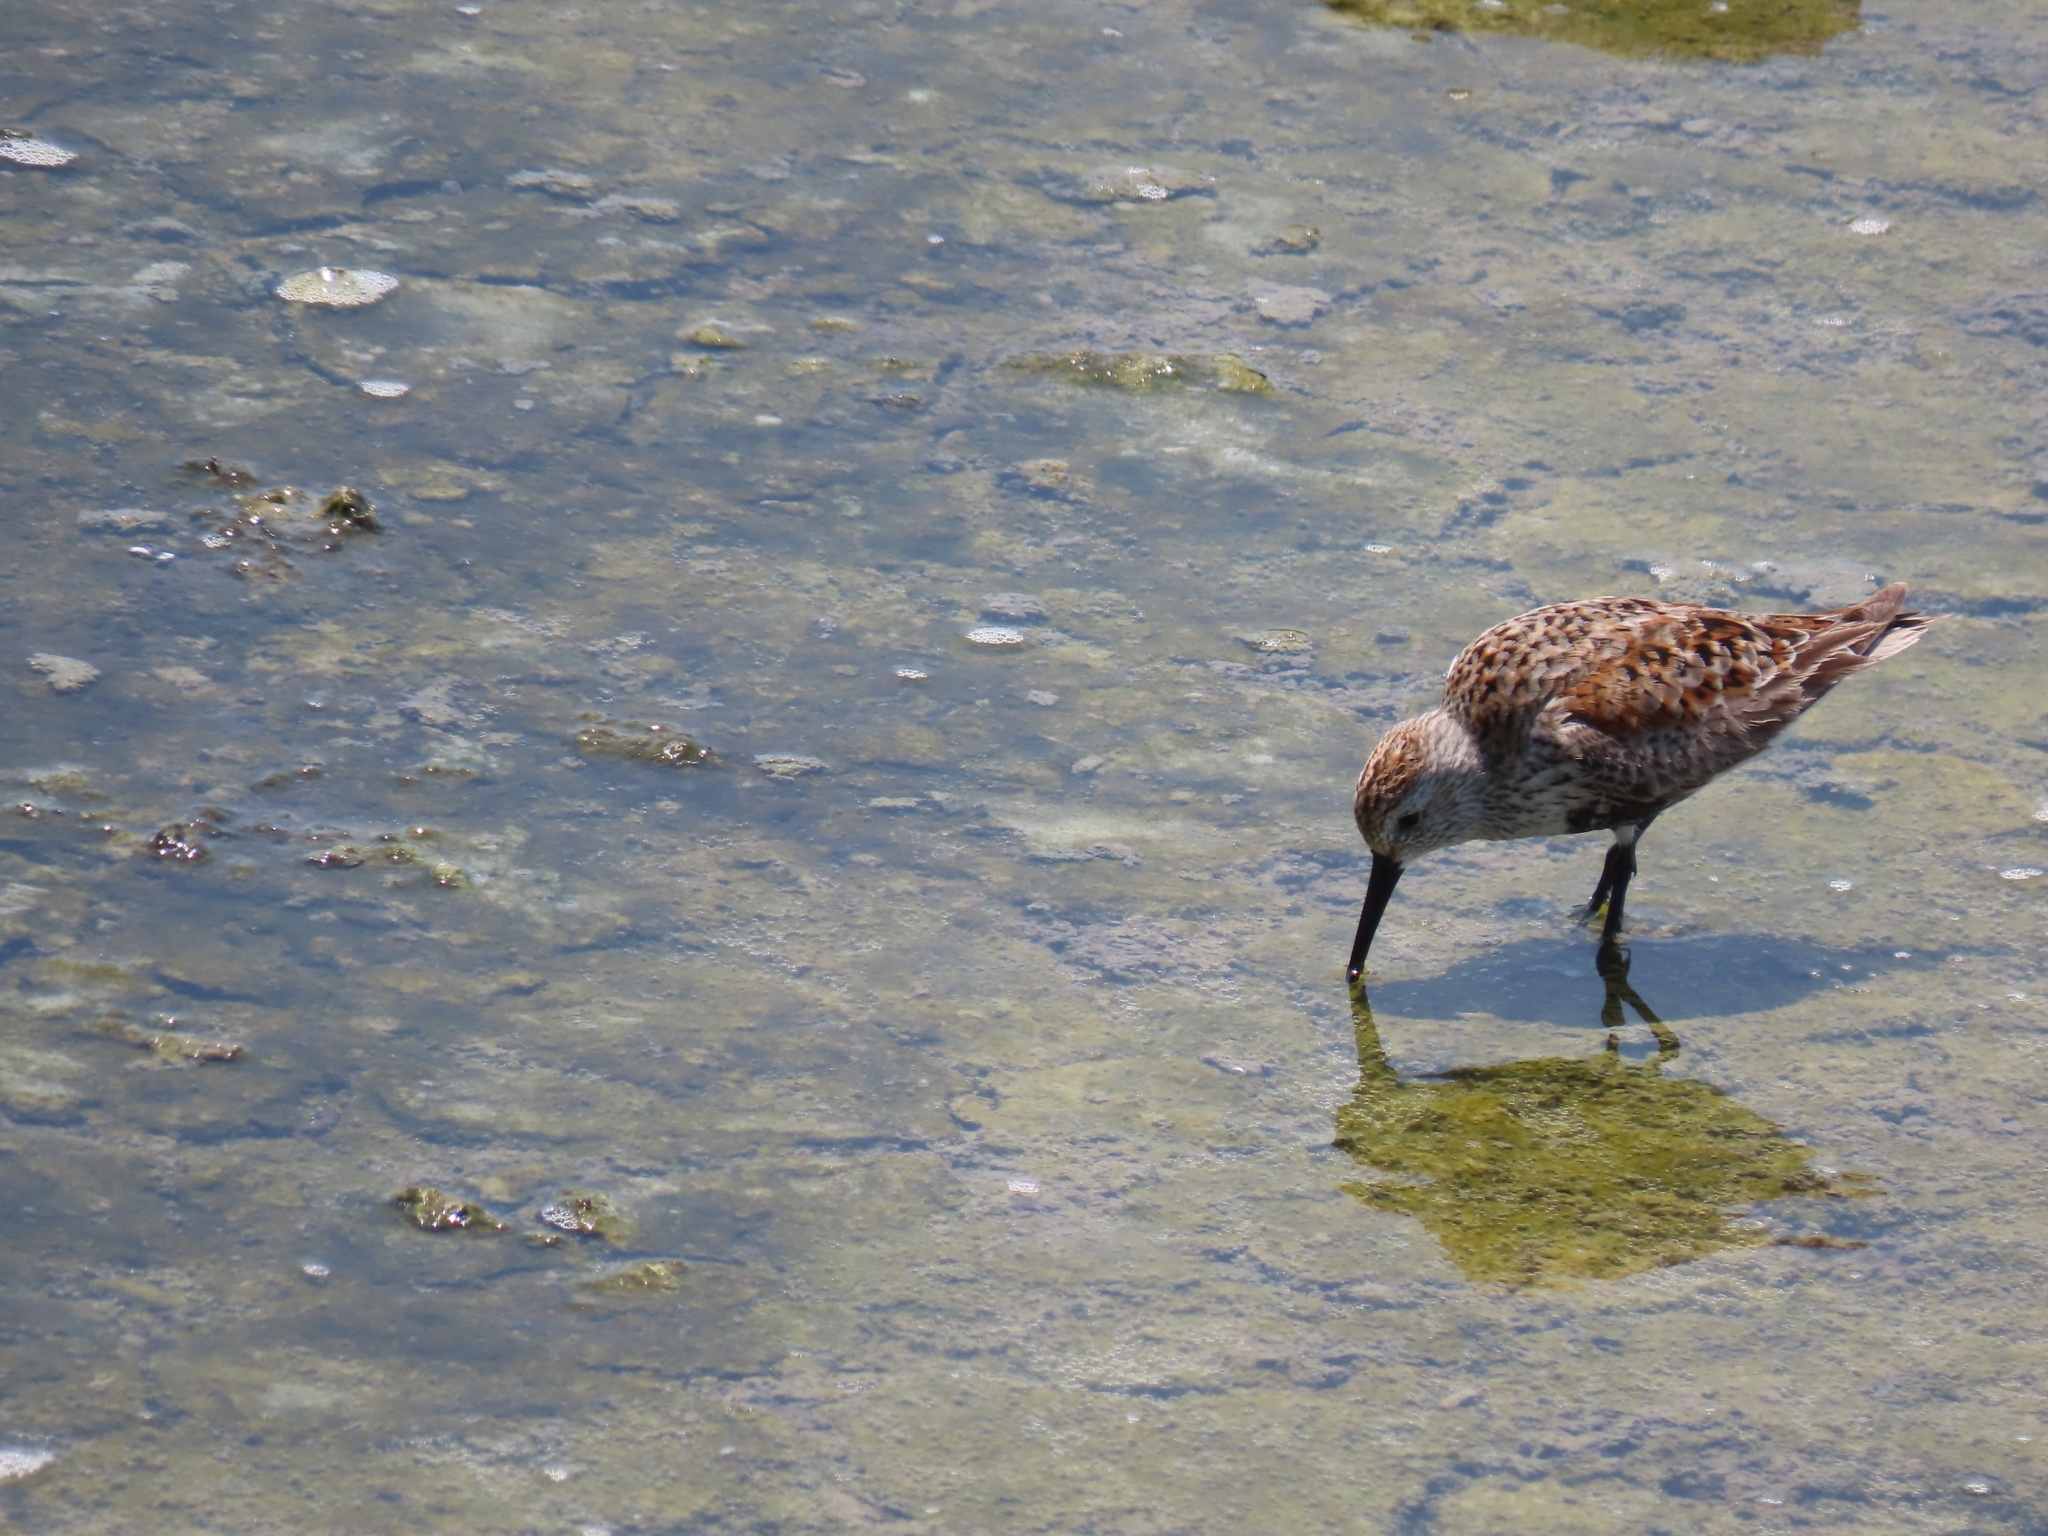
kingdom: Animalia
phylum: Chordata
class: Aves
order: Charadriiformes
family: Scolopacidae
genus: Calidris
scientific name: Calidris alpina
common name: Dunlin
